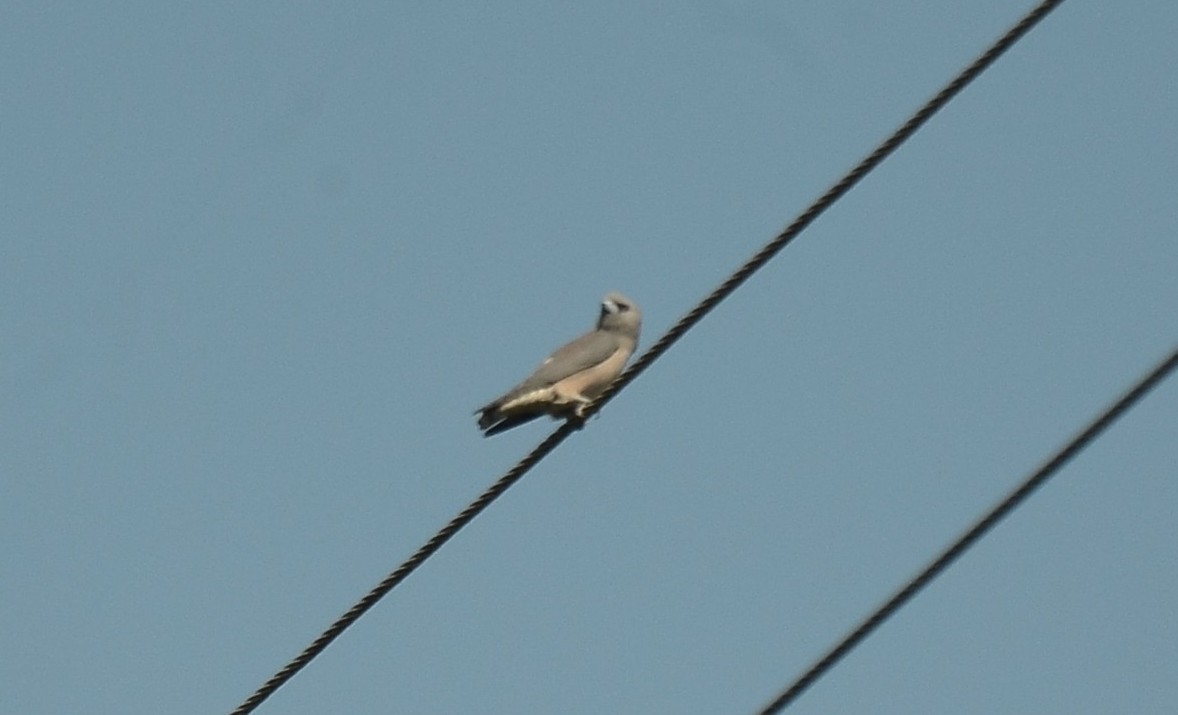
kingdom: Animalia
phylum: Chordata
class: Aves
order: Passeriformes
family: Artamidae
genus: Artamus
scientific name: Artamus fuscus
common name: Ashy woodswallow
